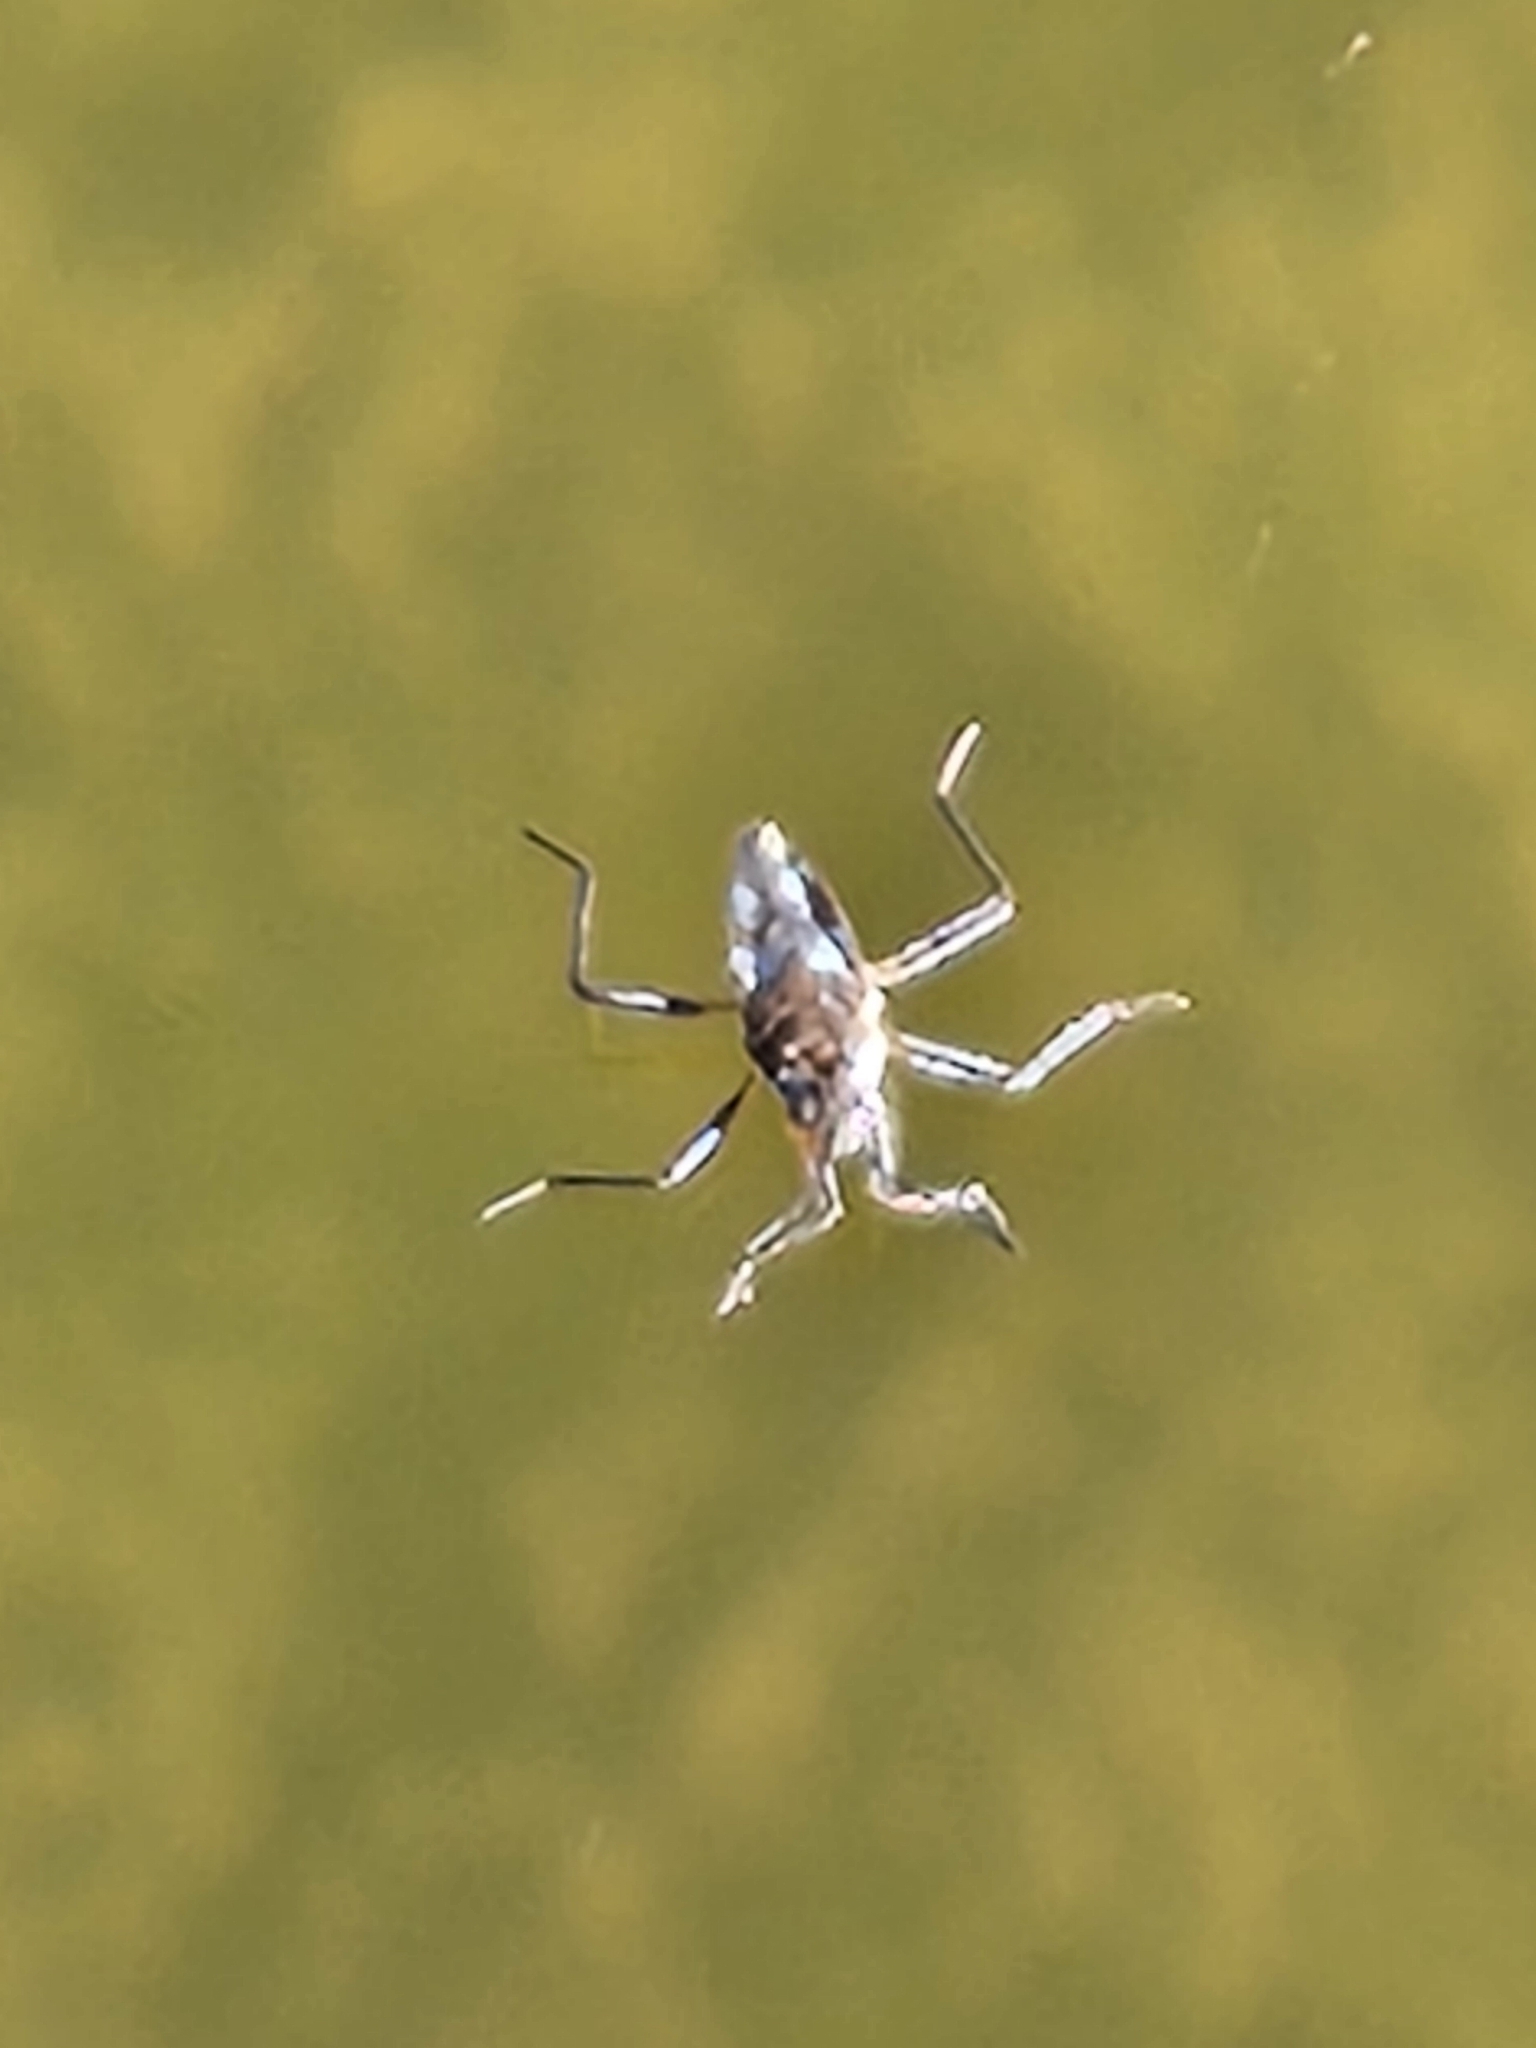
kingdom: Animalia
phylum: Arthropoda
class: Insecta
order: Hemiptera
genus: Kirkaldya
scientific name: Kirkaldya
